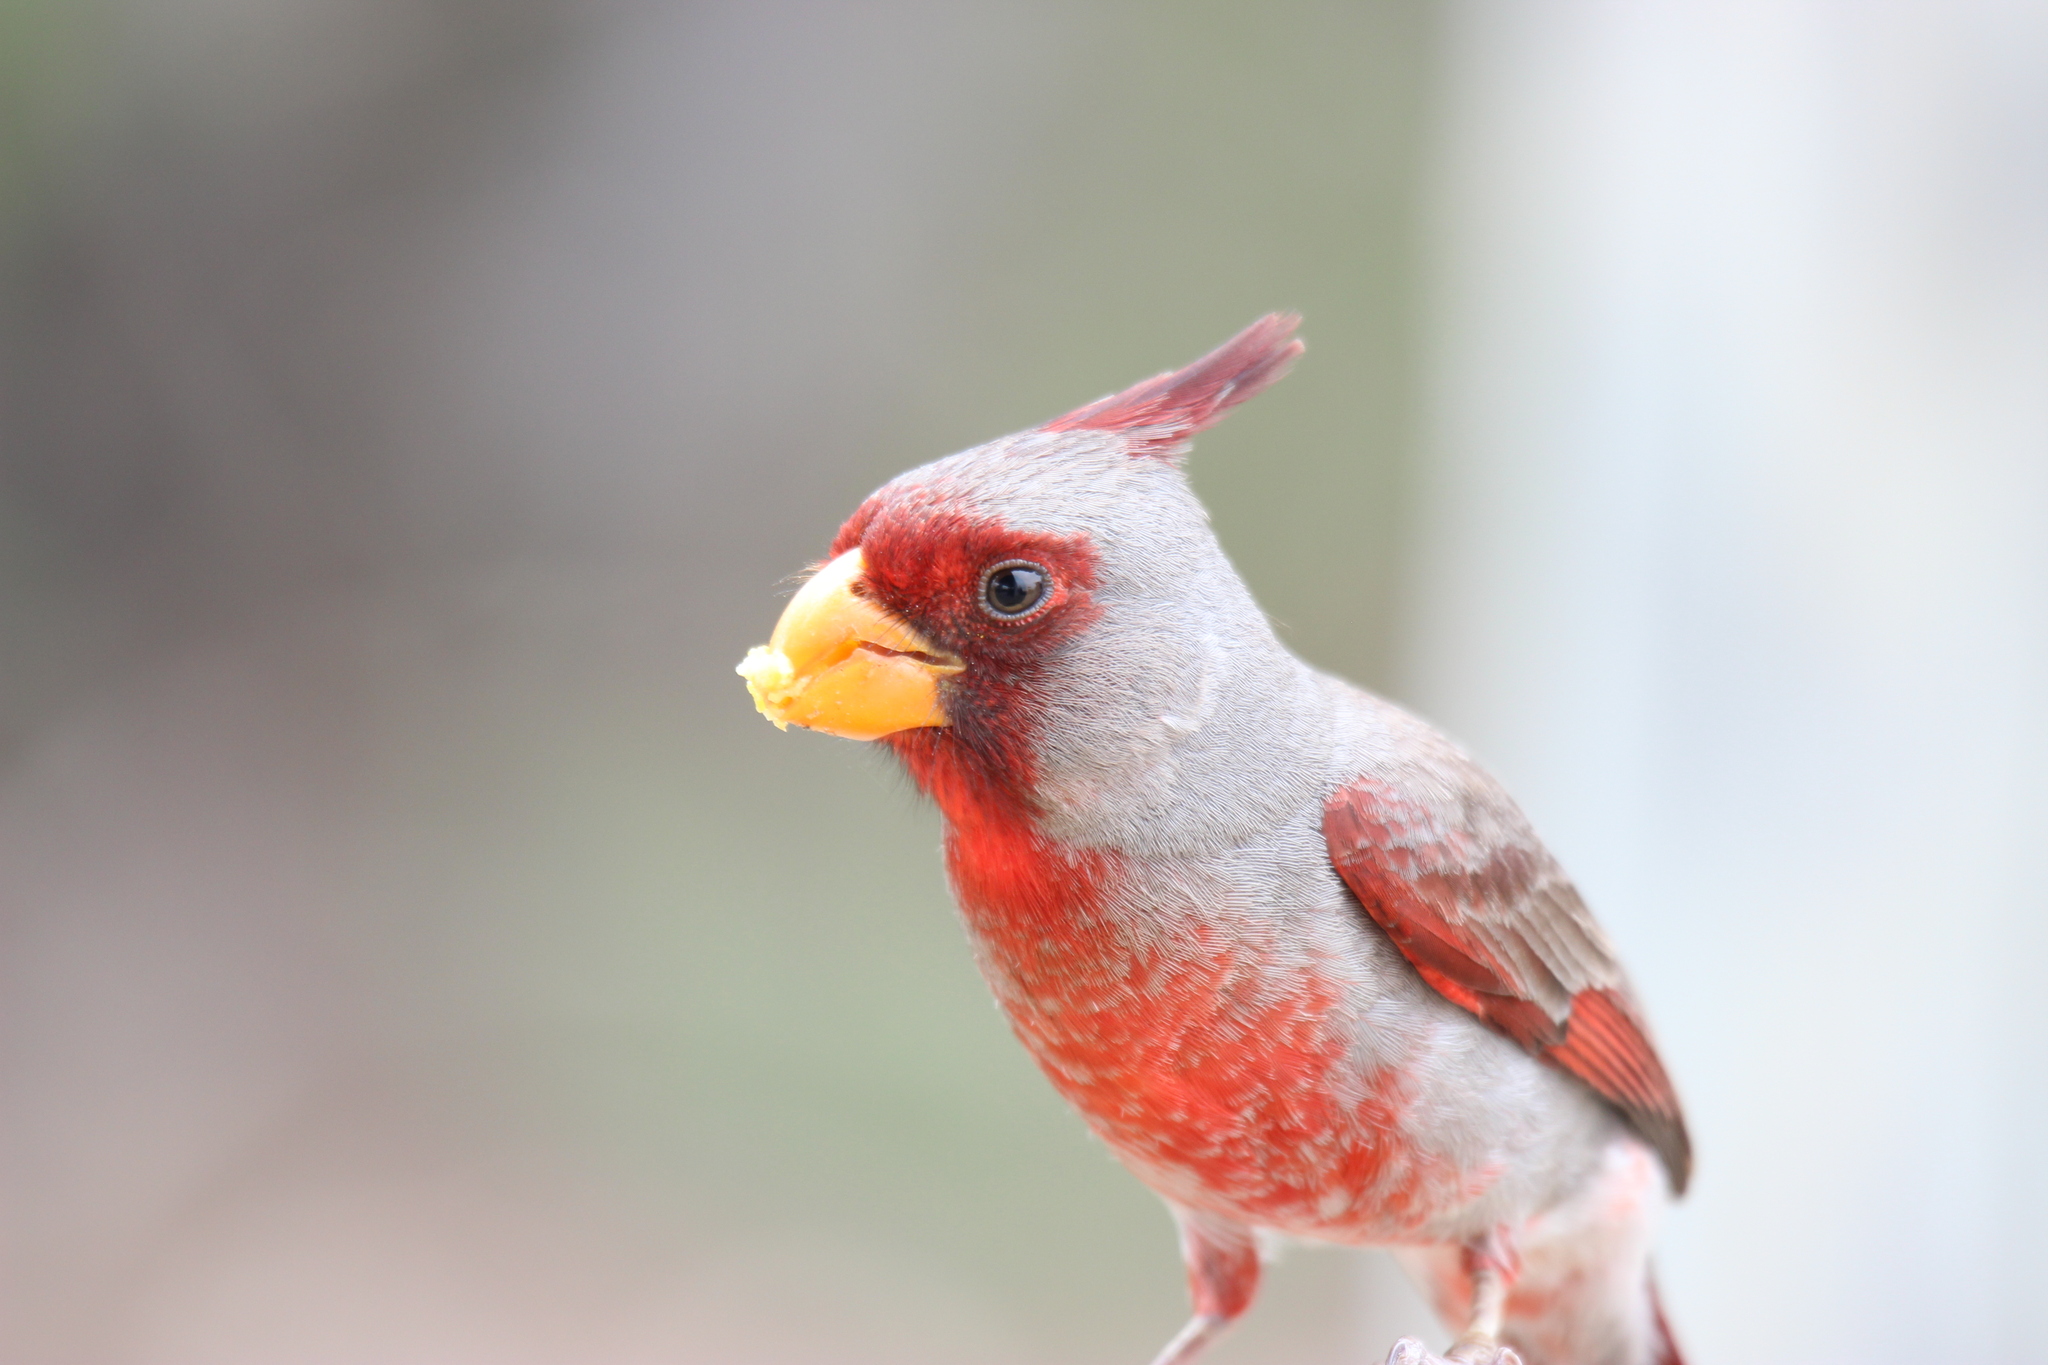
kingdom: Animalia
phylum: Chordata
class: Aves
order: Passeriformes
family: Cardinalidae
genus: Cardinalis
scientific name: Cardinalis sinuatus
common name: Pyrrhuloxia
